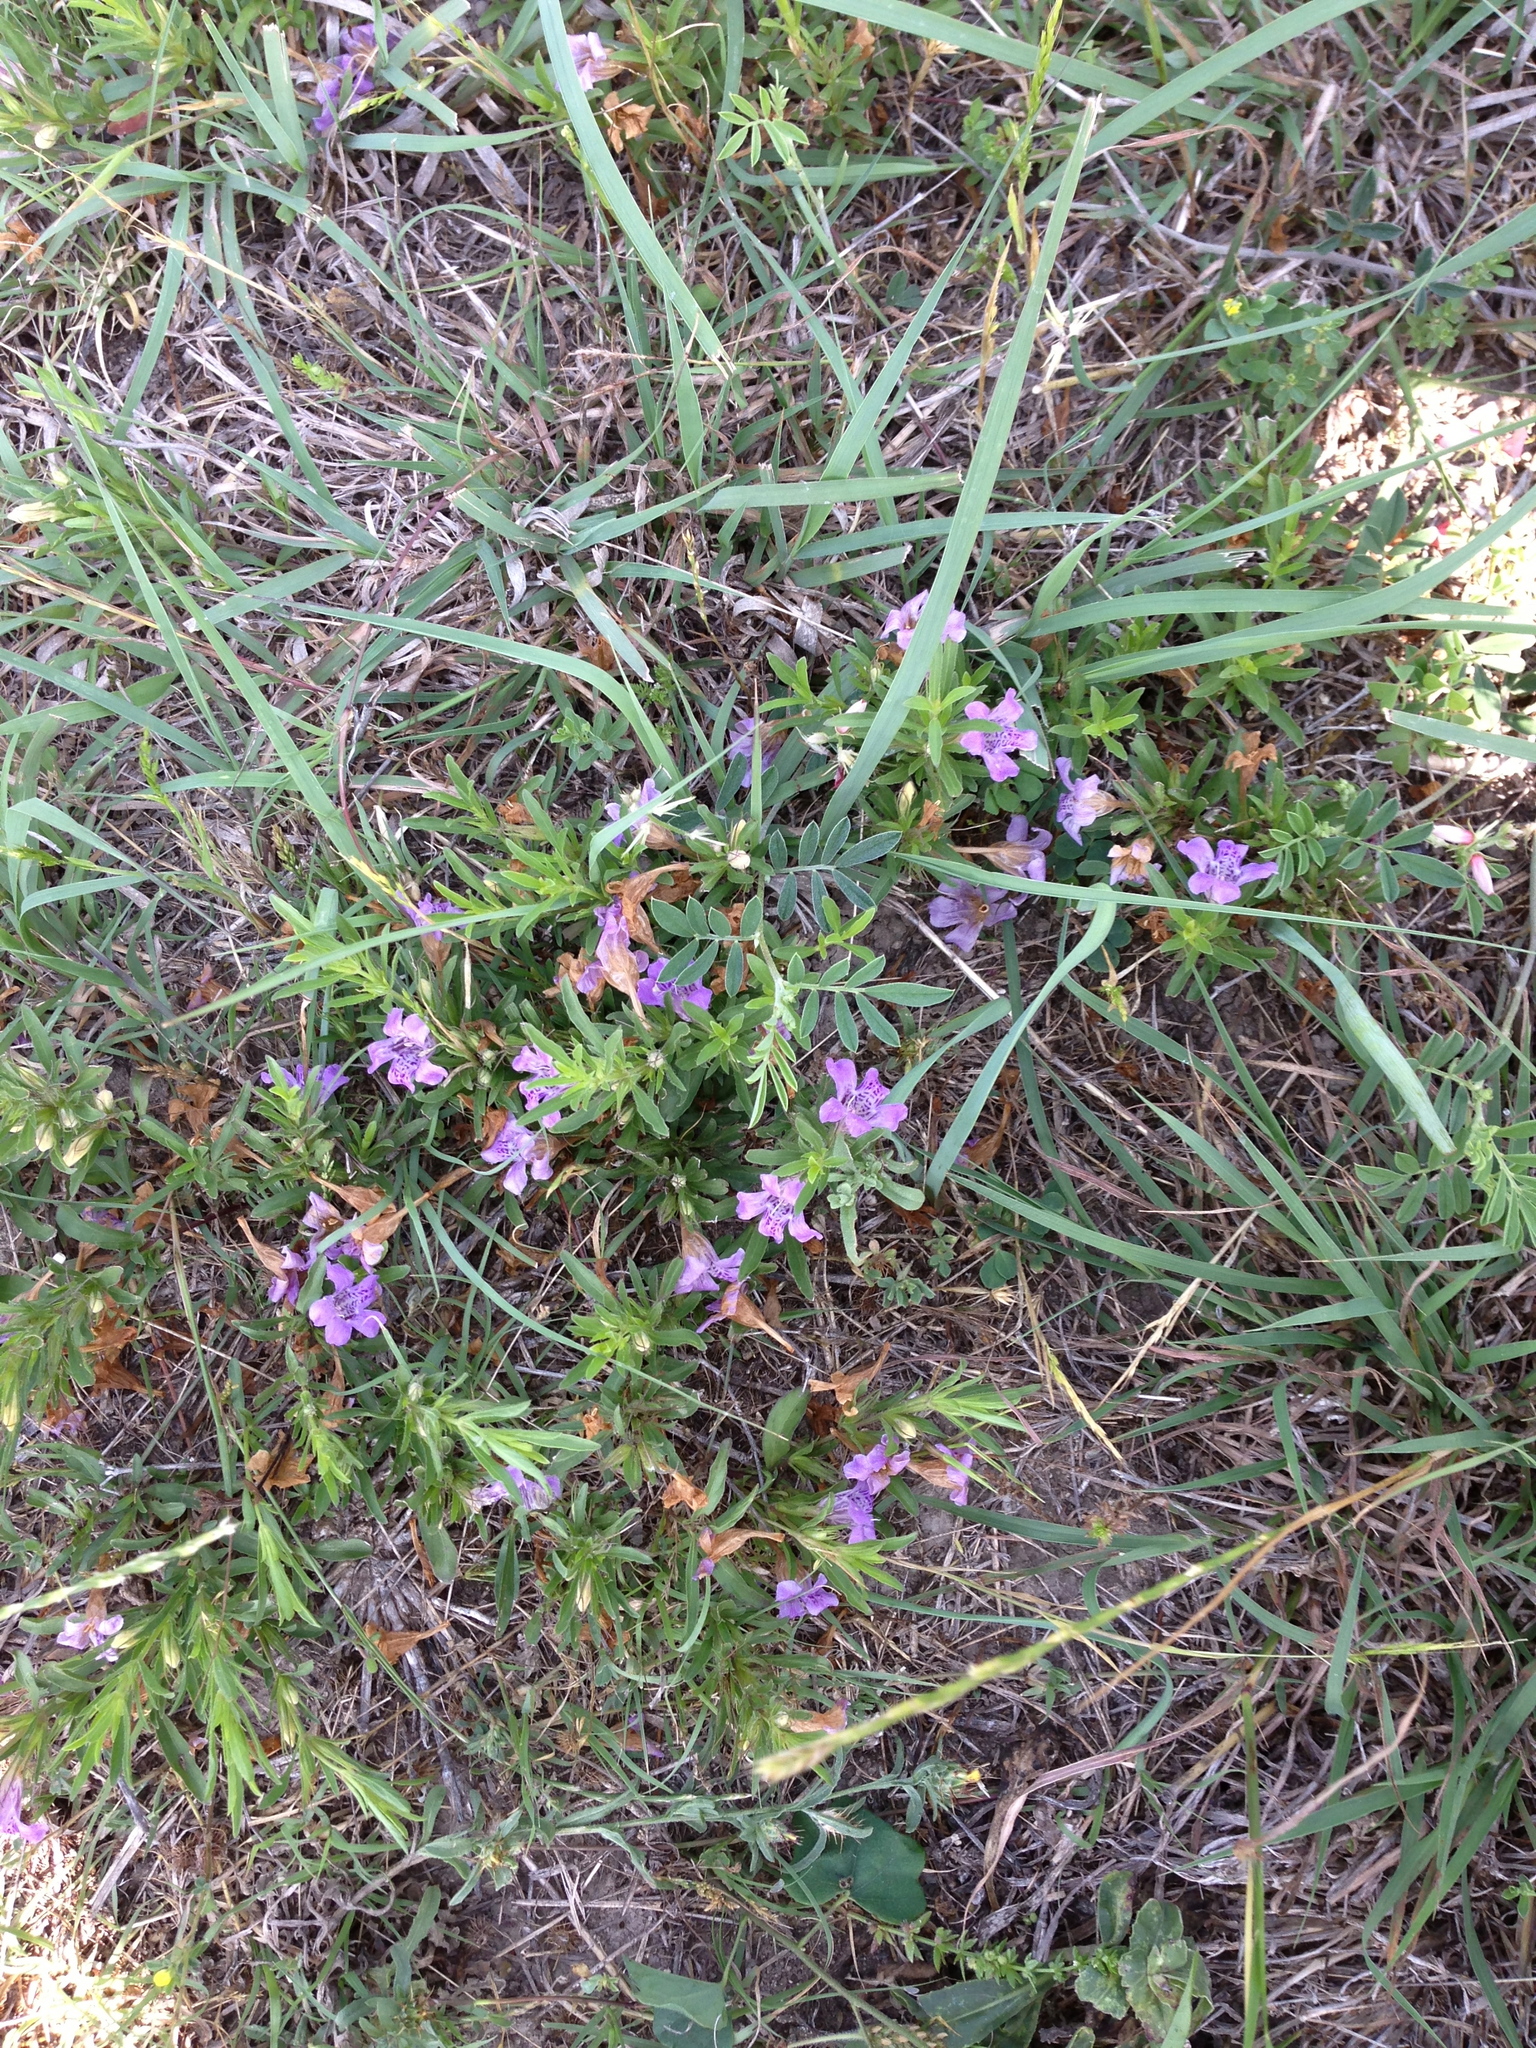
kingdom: Plantae
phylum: Tracheophyta
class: Magnoliopsida
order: Lamiales
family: Acanthaceae
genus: Dyschoriste
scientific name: Dyschoriste linearis
